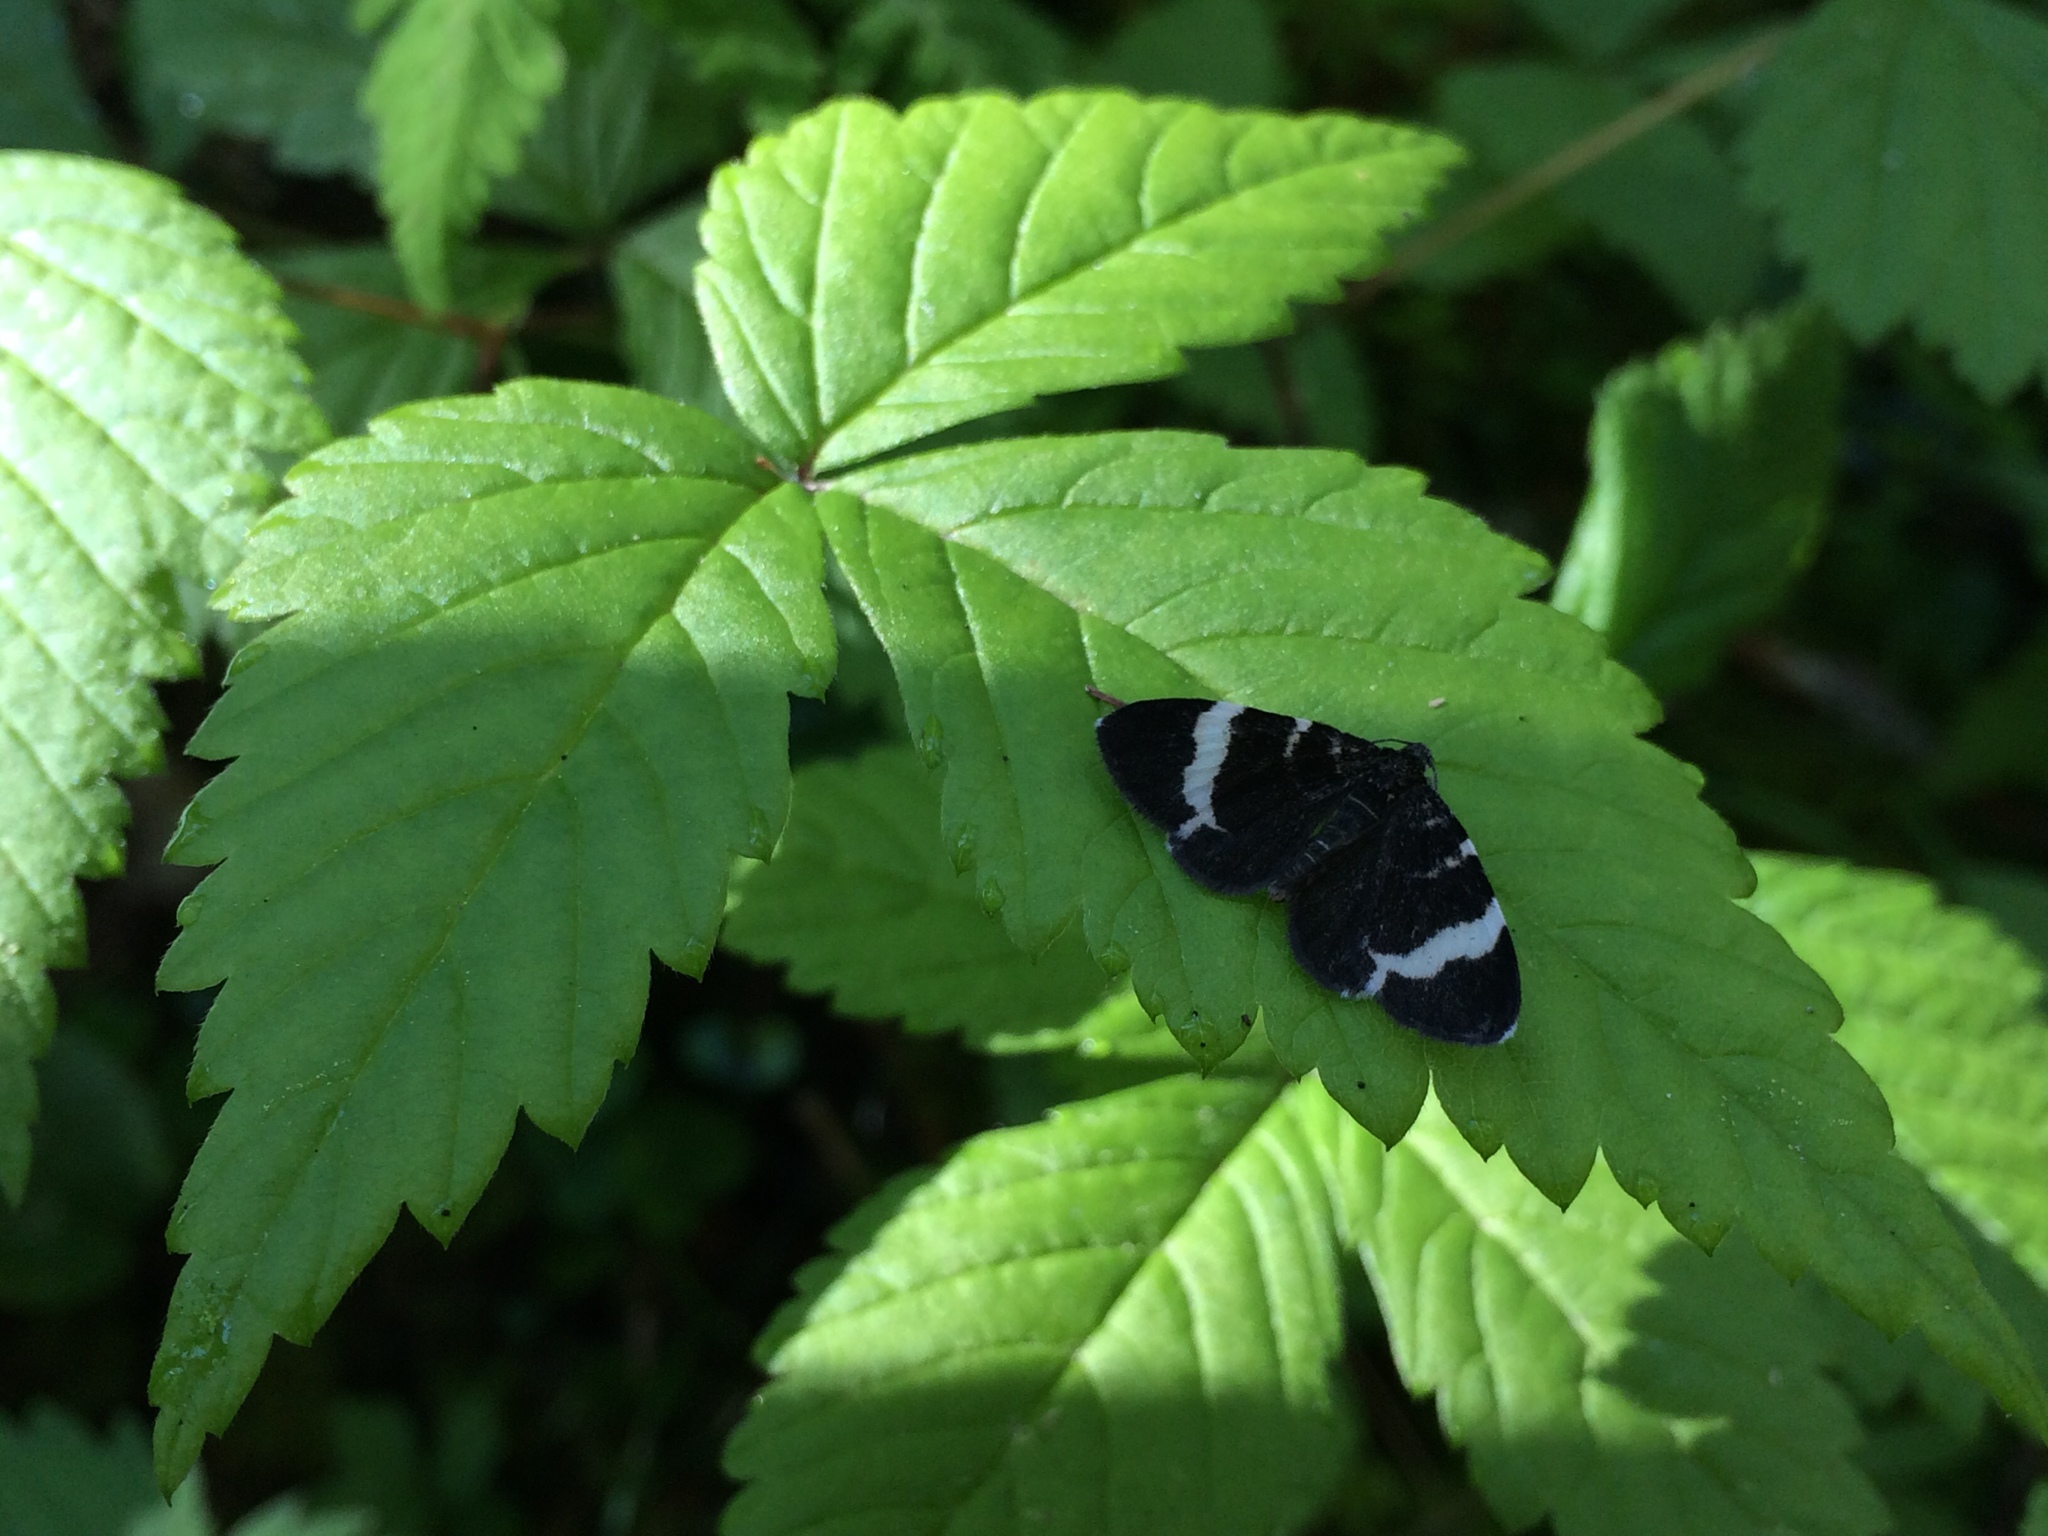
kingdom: Animalia
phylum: Arthropoda
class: Insecta
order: Lepidoptera
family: Geometridae
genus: Trichodezia
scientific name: Trichodezia albovittata
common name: White striped black
